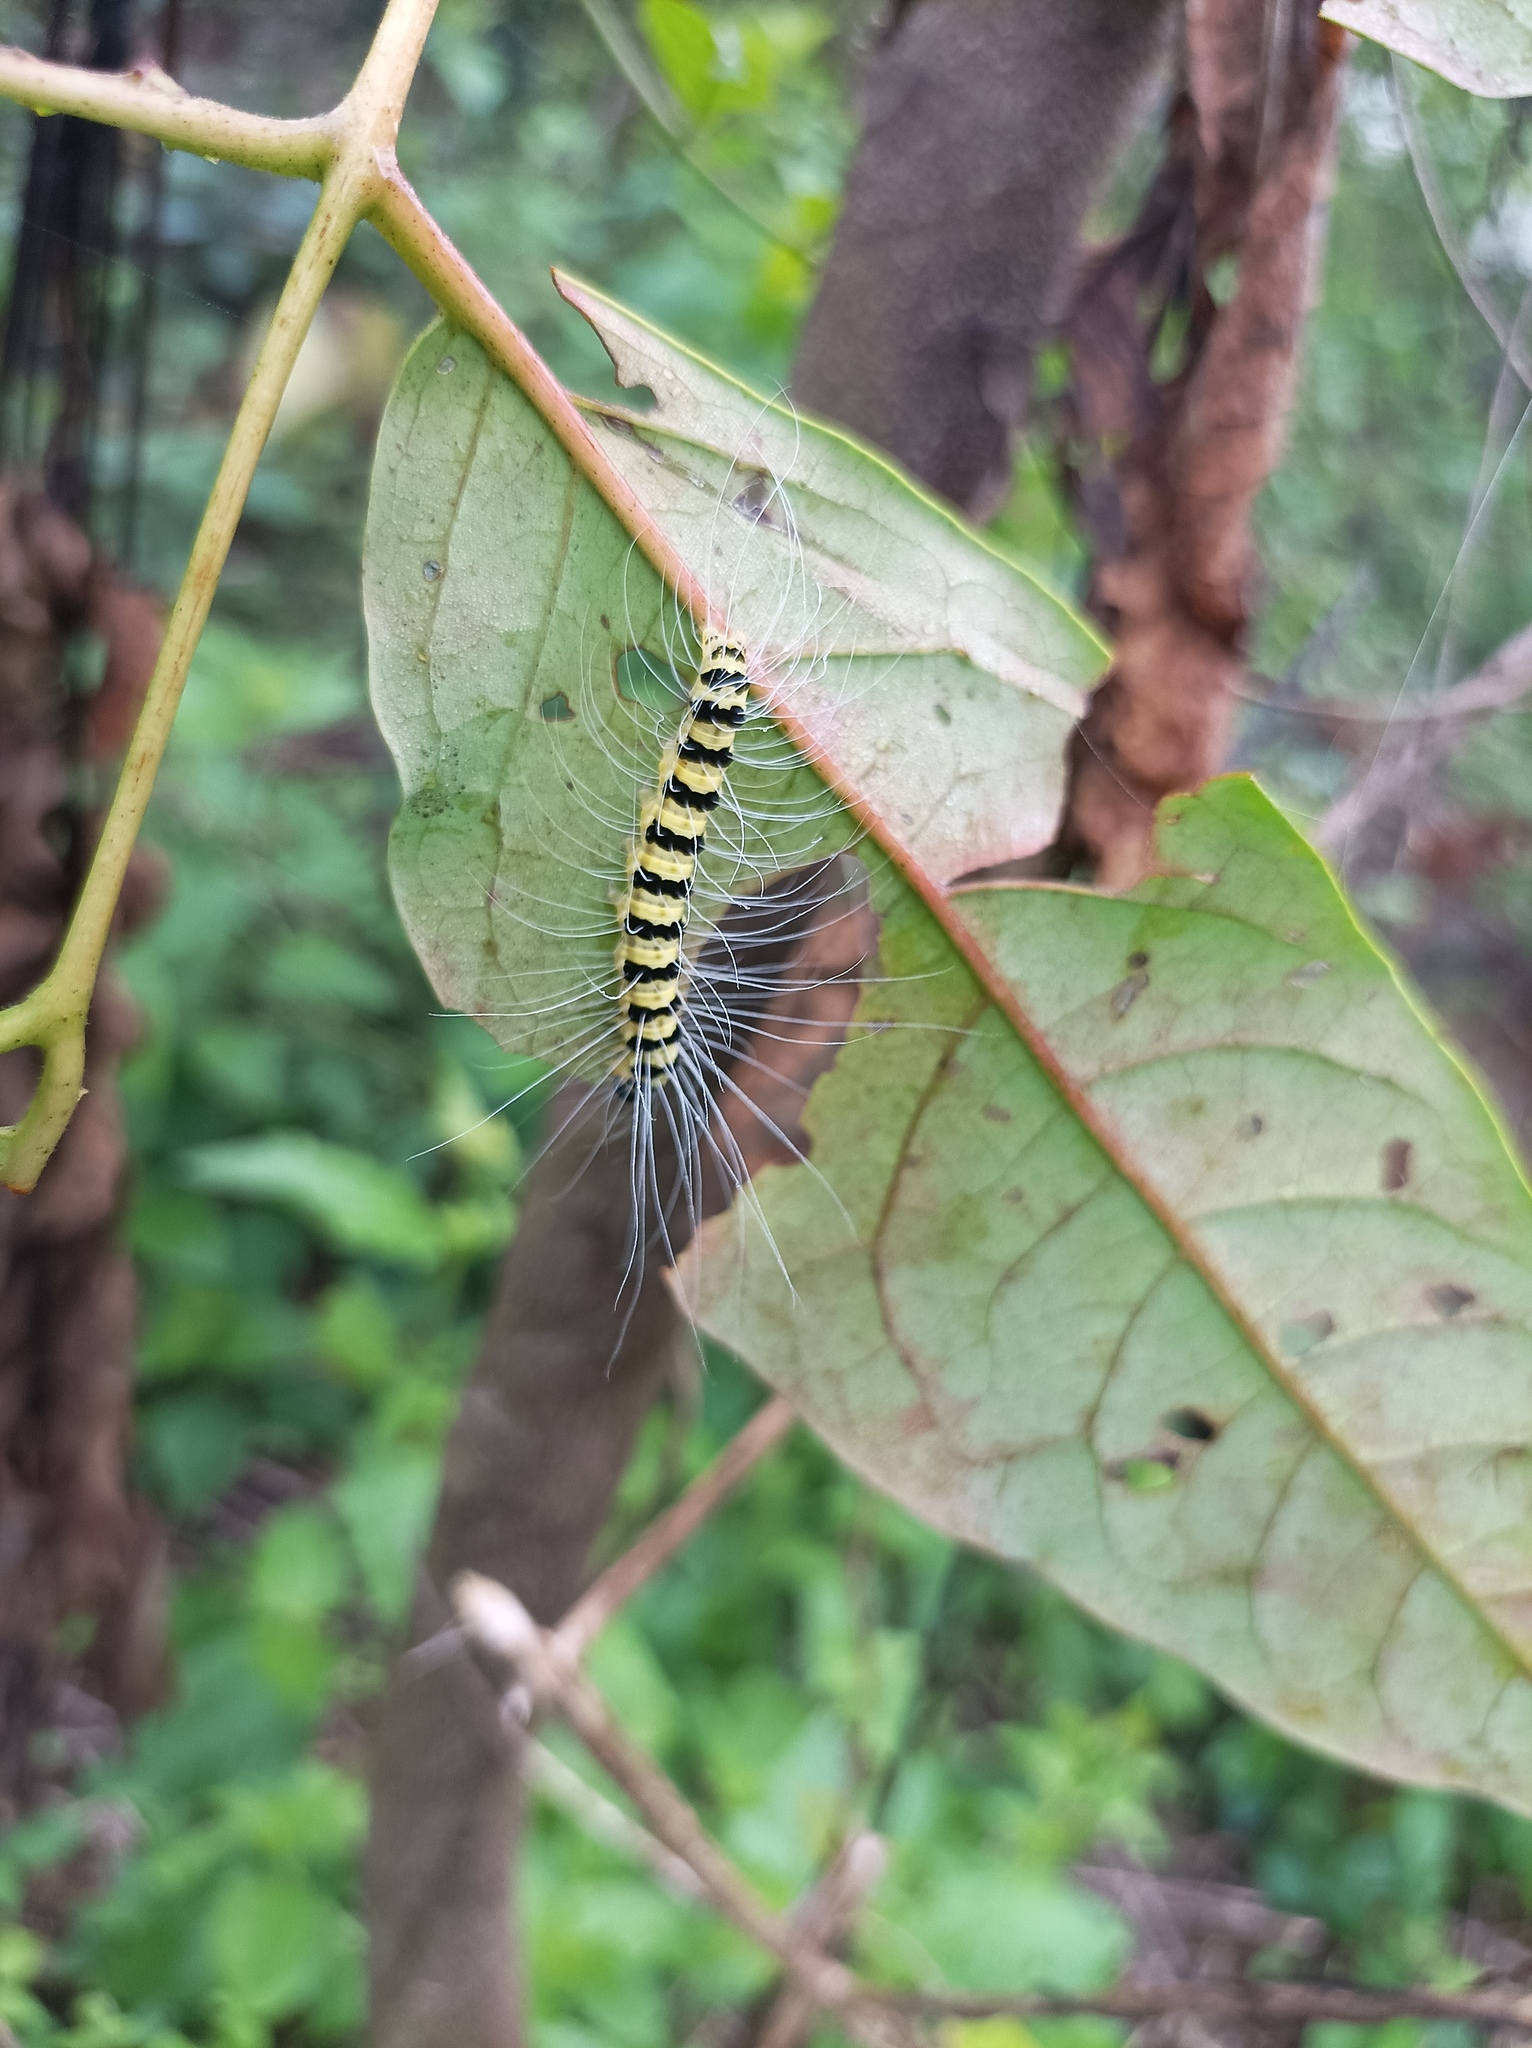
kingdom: Animalia
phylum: Arthropoda
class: Insecta
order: Lepidoptera
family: Nolidae
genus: Eligma
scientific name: Eligma narcissus
